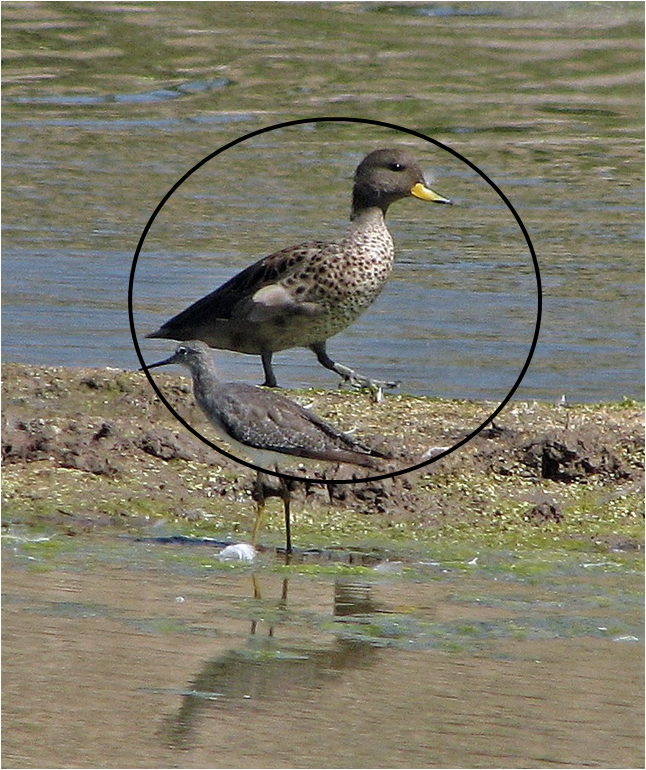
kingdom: Animalia
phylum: Chordata
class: Aves
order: Anseriformes
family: Anatidae
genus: Anas
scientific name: Anas flavirostris
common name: Yellow-billed teal
